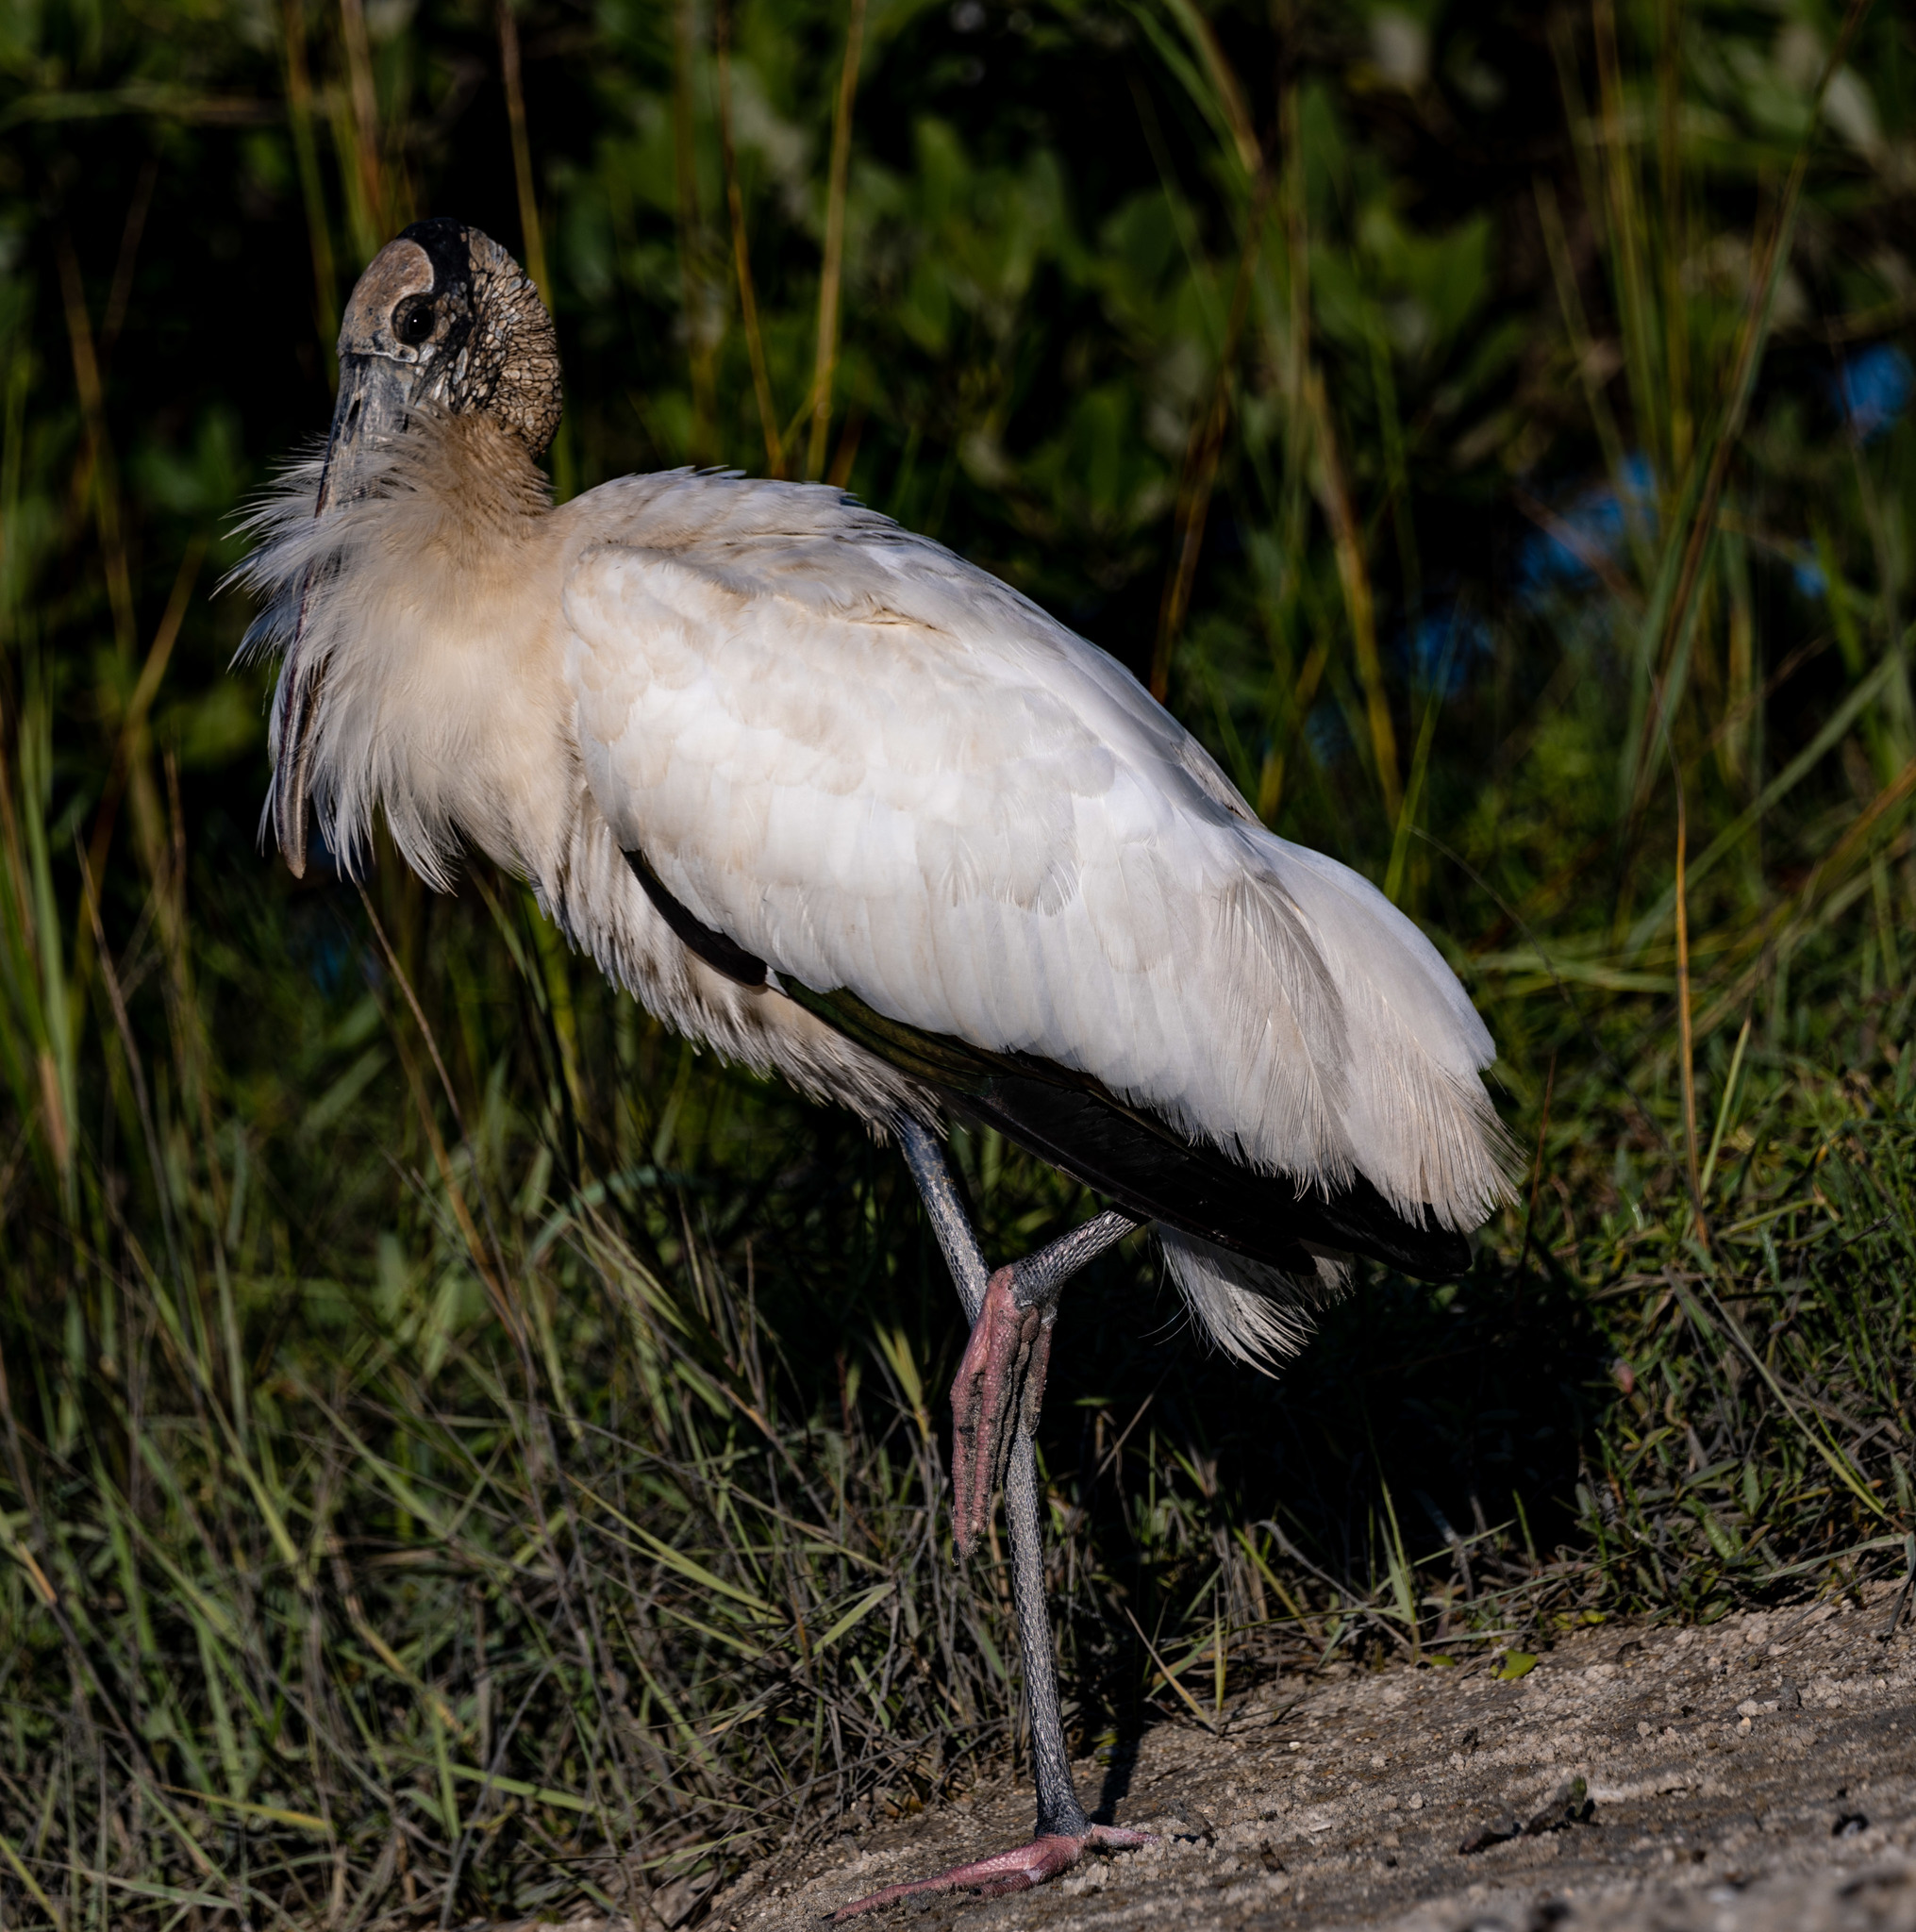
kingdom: Animalia
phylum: Chordata
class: Aves
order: Ciconiiformes
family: Ciconiidae
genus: Mycteria
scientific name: Mycteria americana
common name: Wood stork
